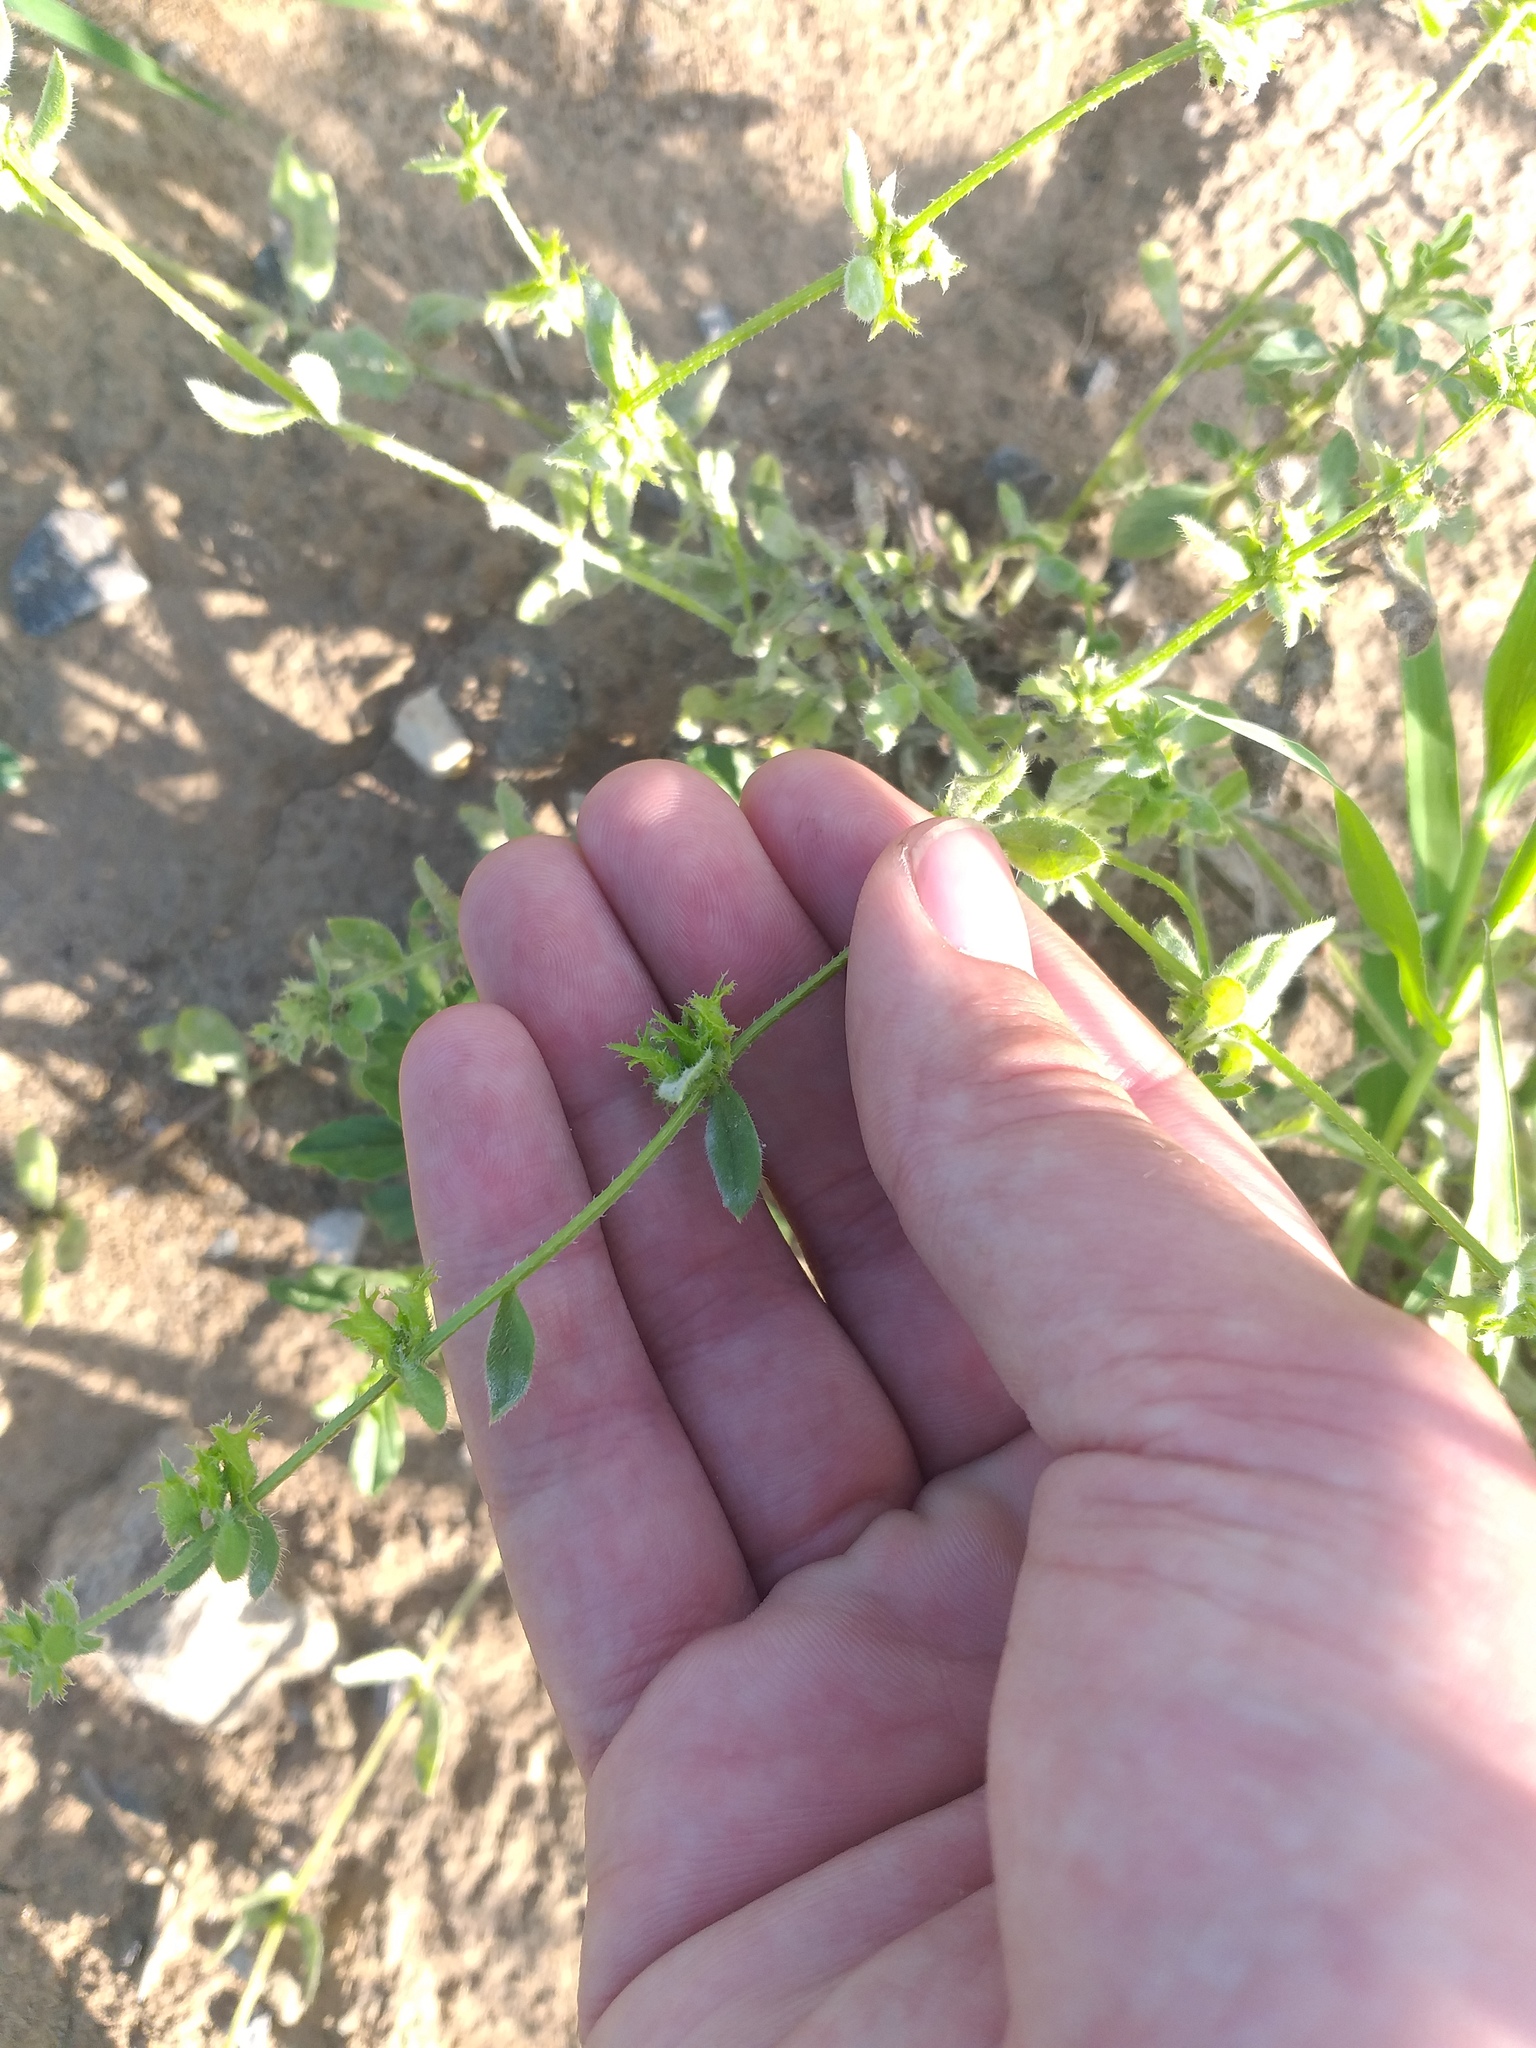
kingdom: Plantae
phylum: Tracheophyta
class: Magnoliopsida
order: Boraginales
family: Boraginaceae
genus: Asperugo
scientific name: Asperugo procumbens
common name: Madwort
